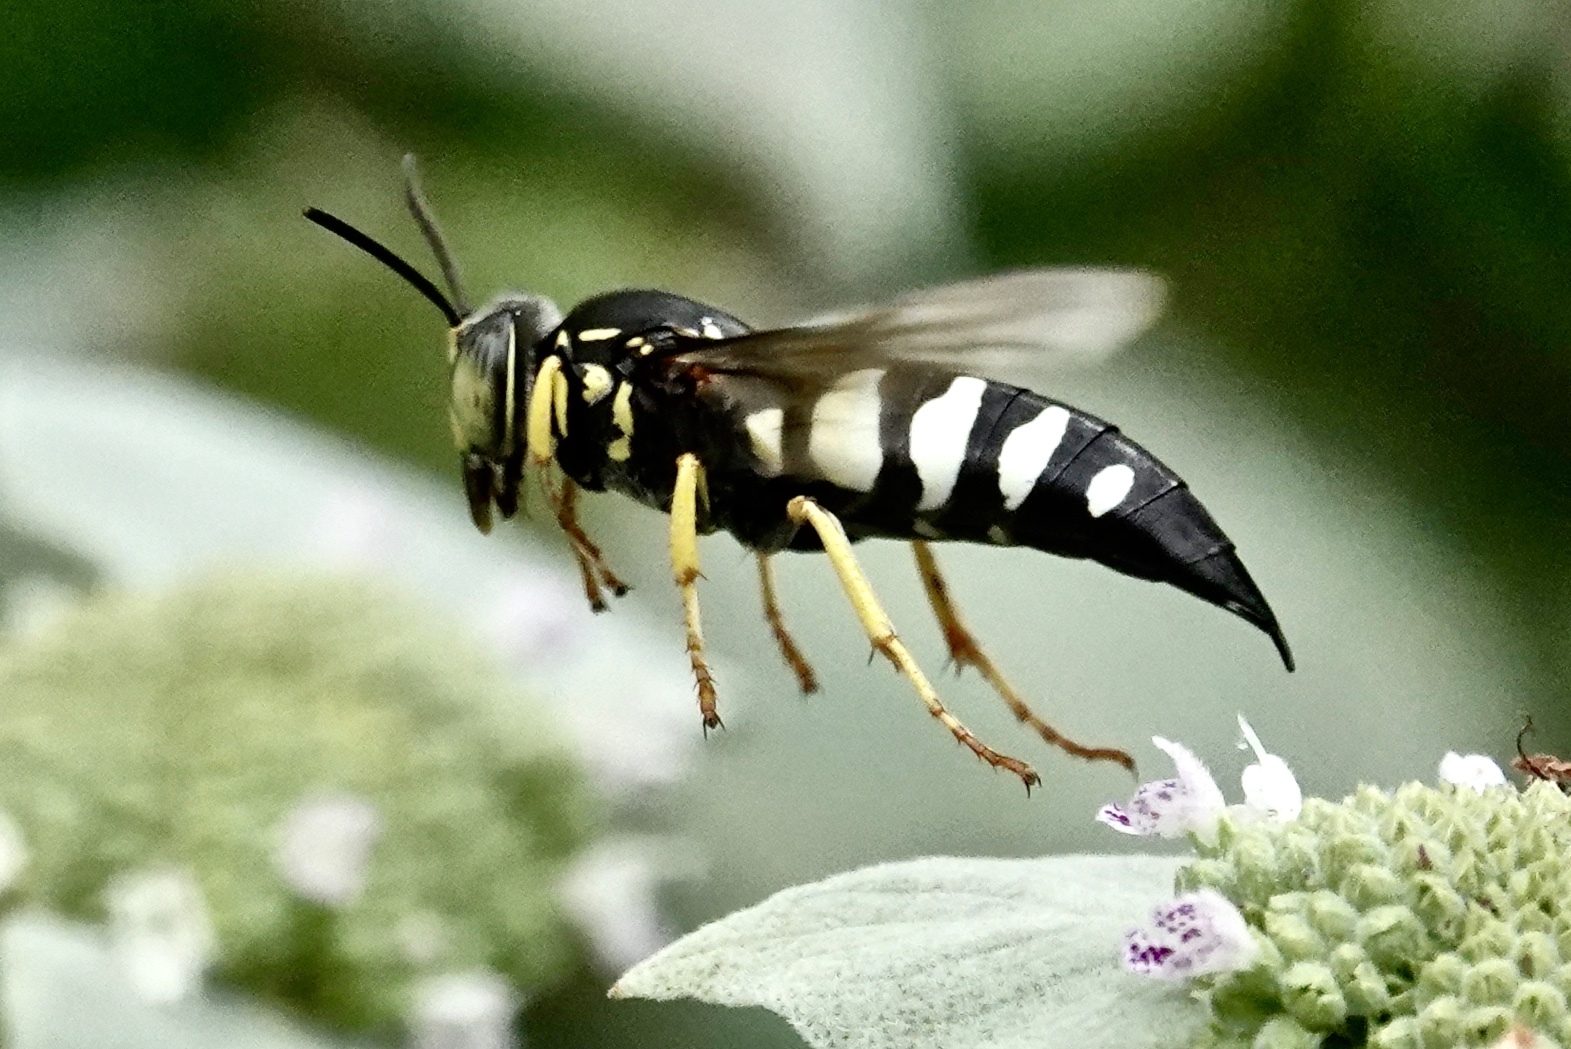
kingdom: Animalia
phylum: Arthropoda
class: Insecta
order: Hymenoptera
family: Crabronidae
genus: Bicyrtes
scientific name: Bicyrtes quadrifasciatus
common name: Four-banded stink bug hunter wasp
